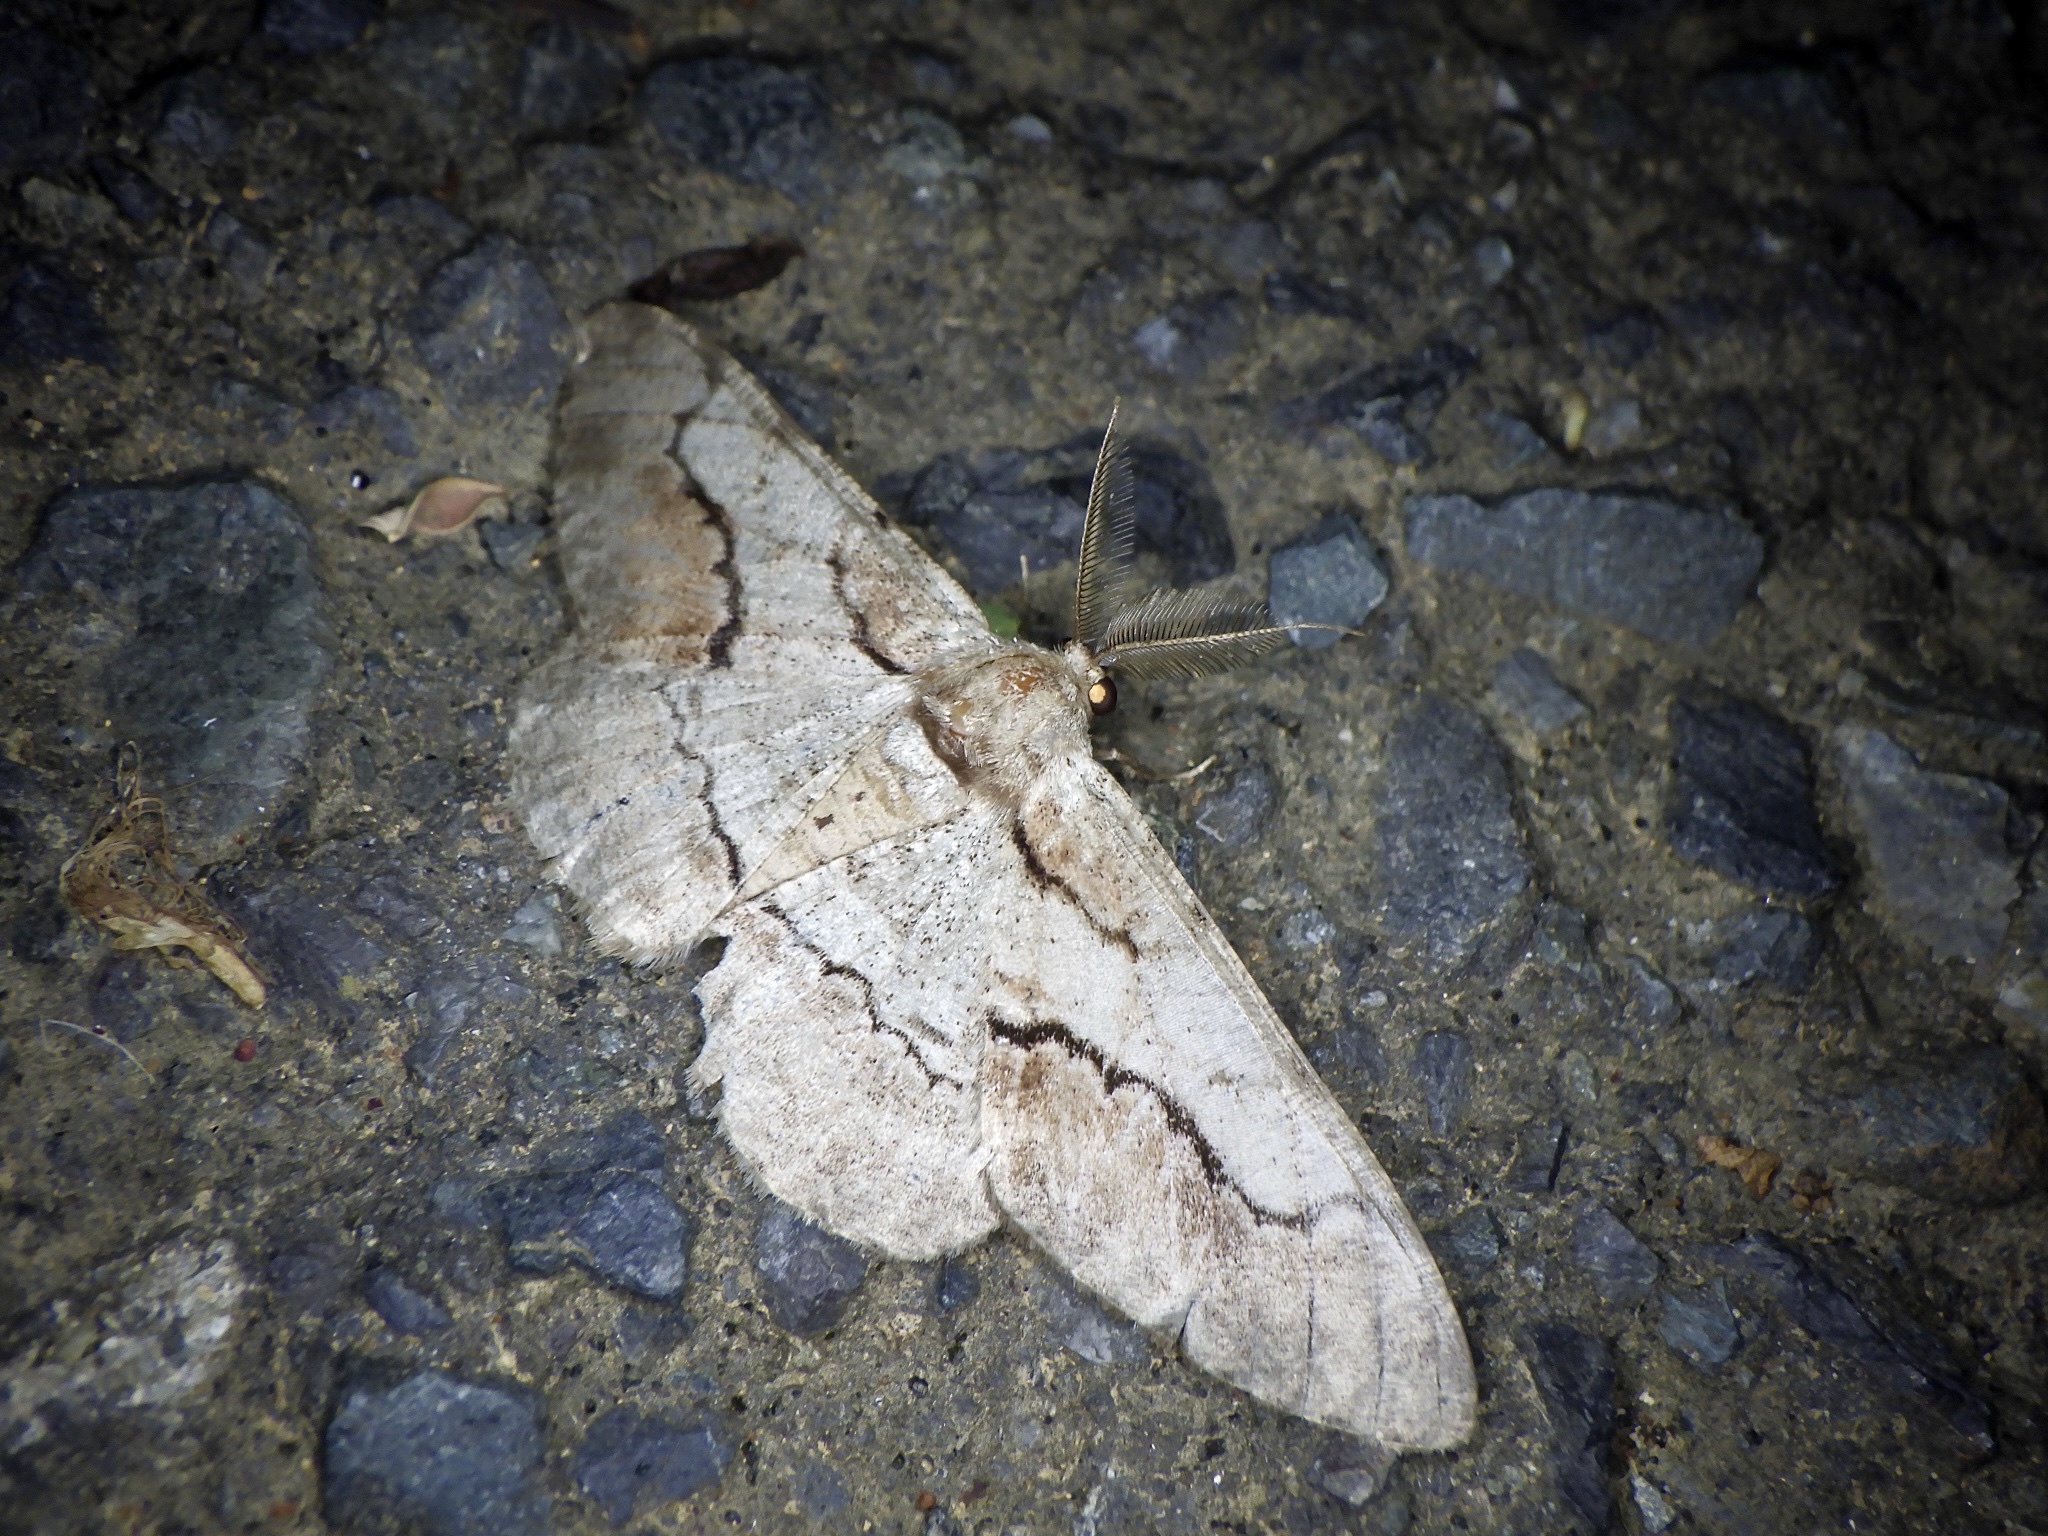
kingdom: Animalia
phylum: Arthropoda
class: Insecta
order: Lepidoptera
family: Geometridae
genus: Phthonosema
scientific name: Phthonosema tendinosaria
